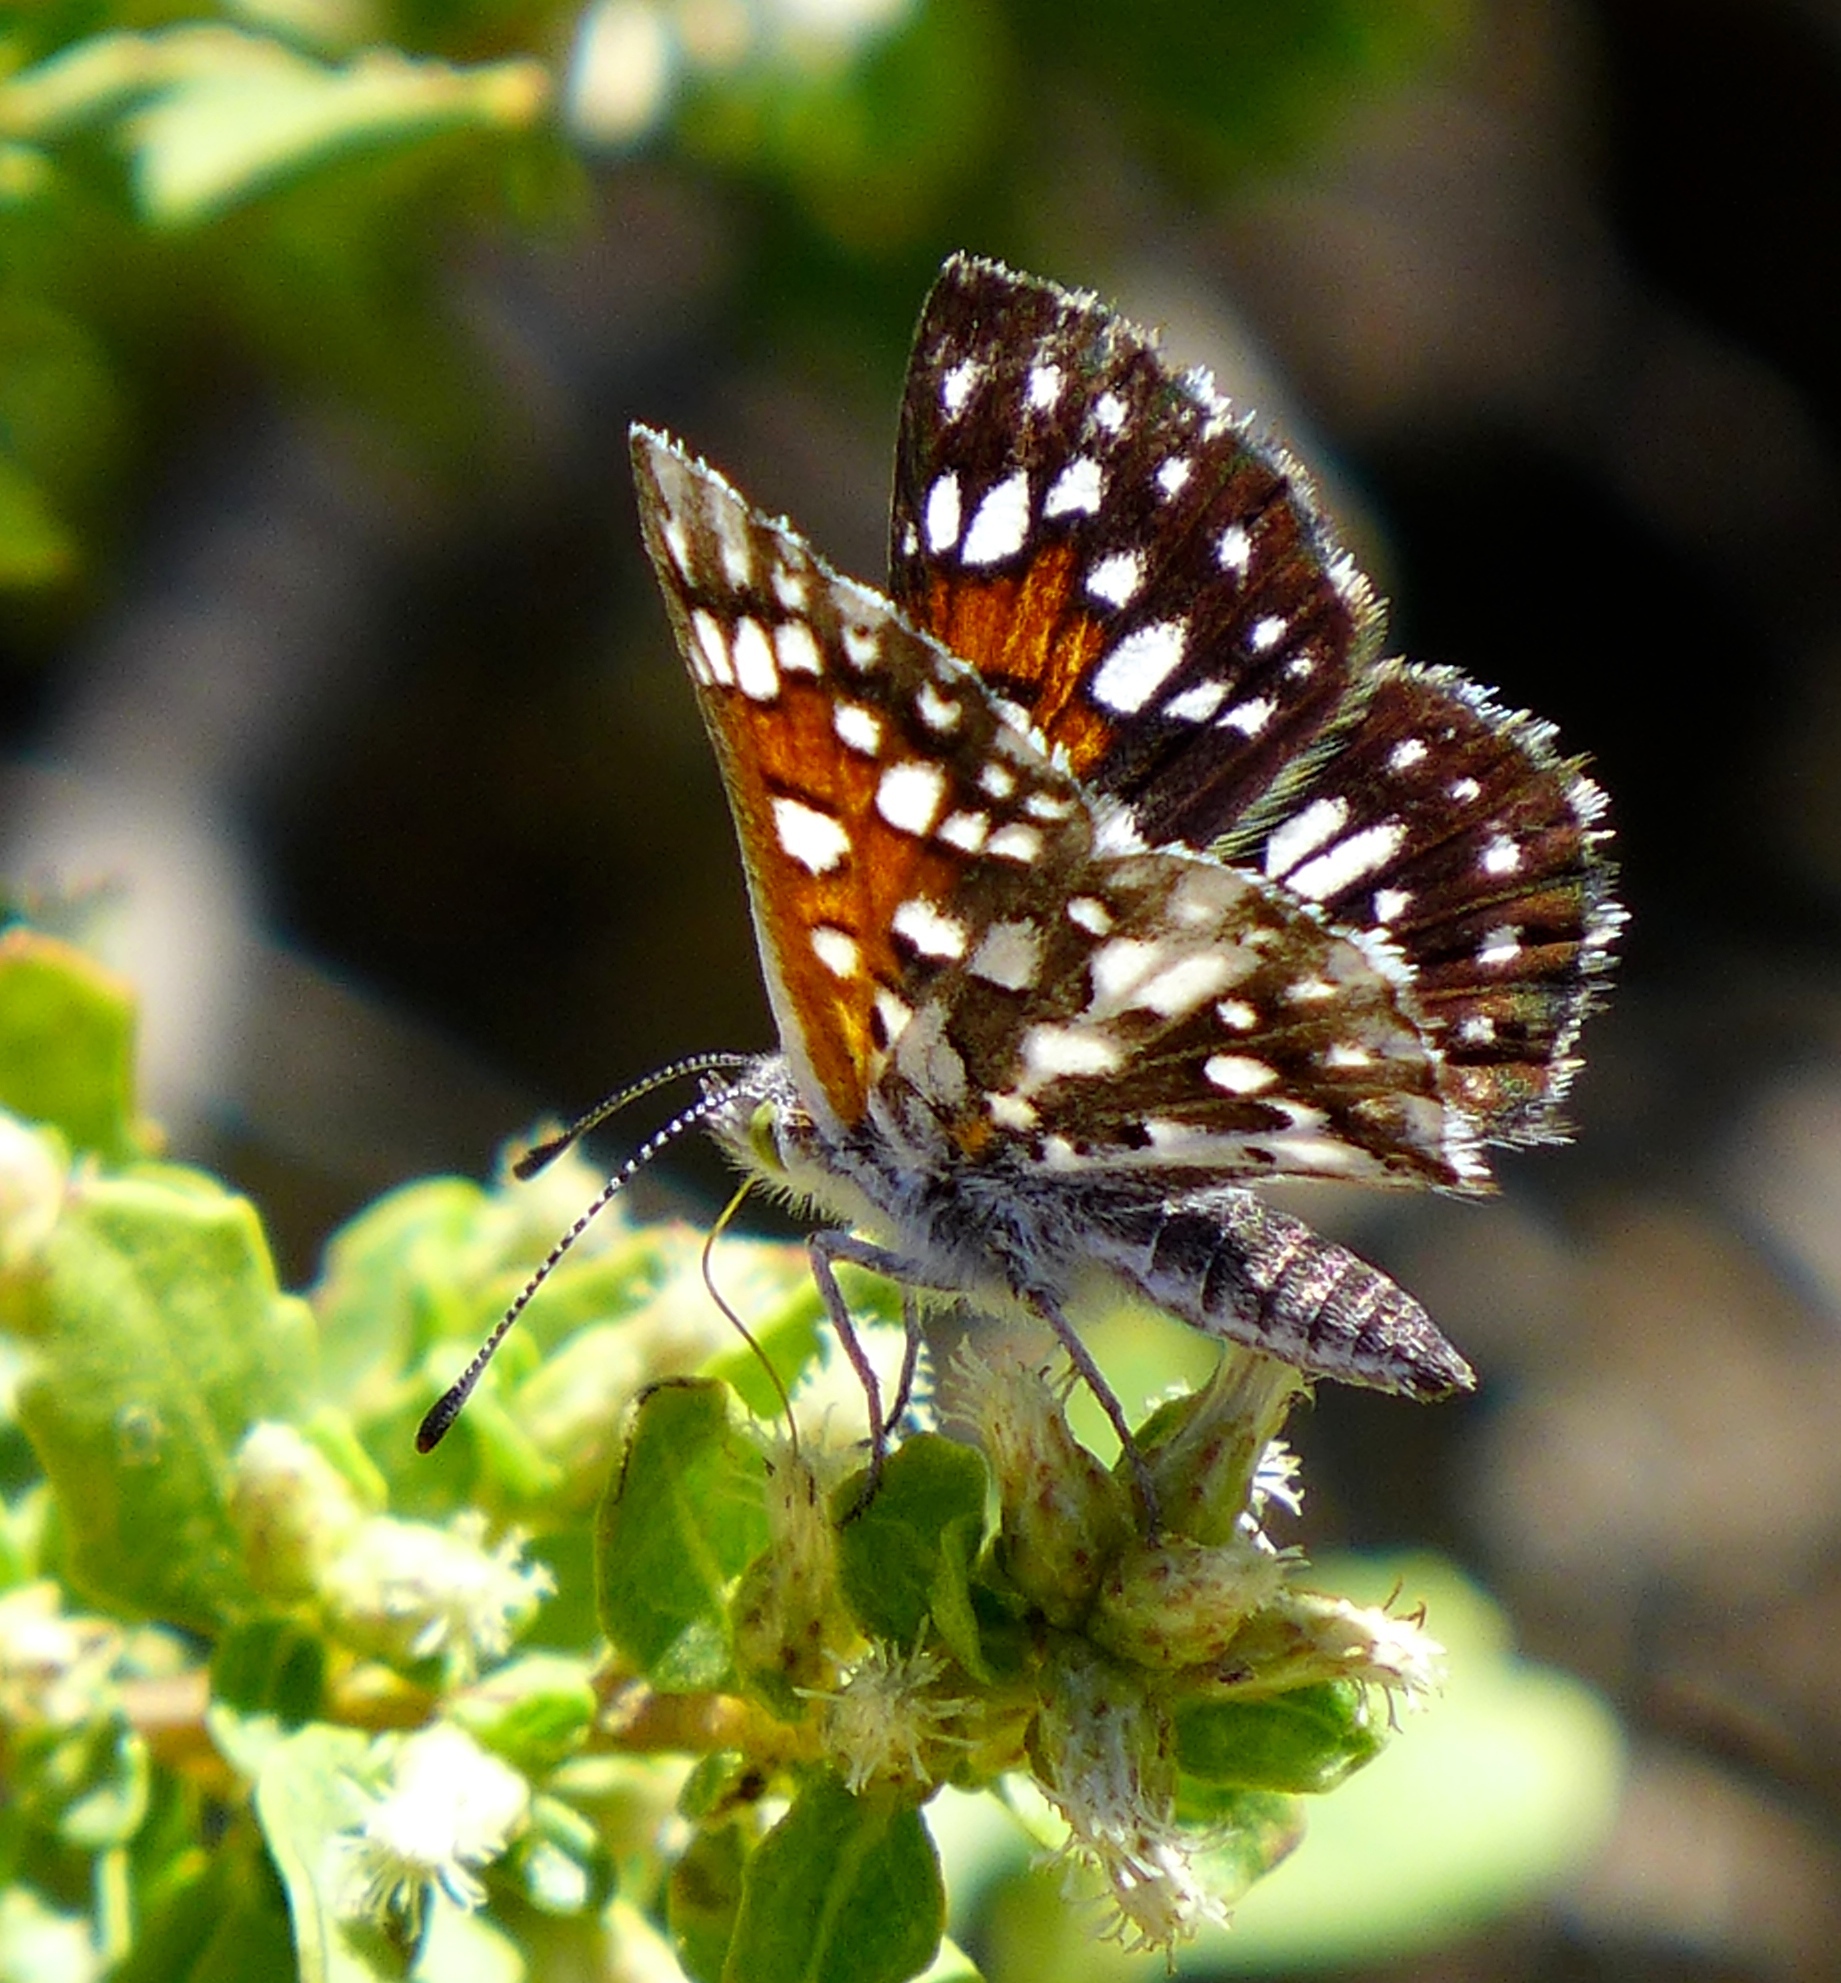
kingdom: Animalia
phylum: Arthropoda
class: Insecta
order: Lepidoptera
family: Riodinidae
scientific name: Riodinidae
